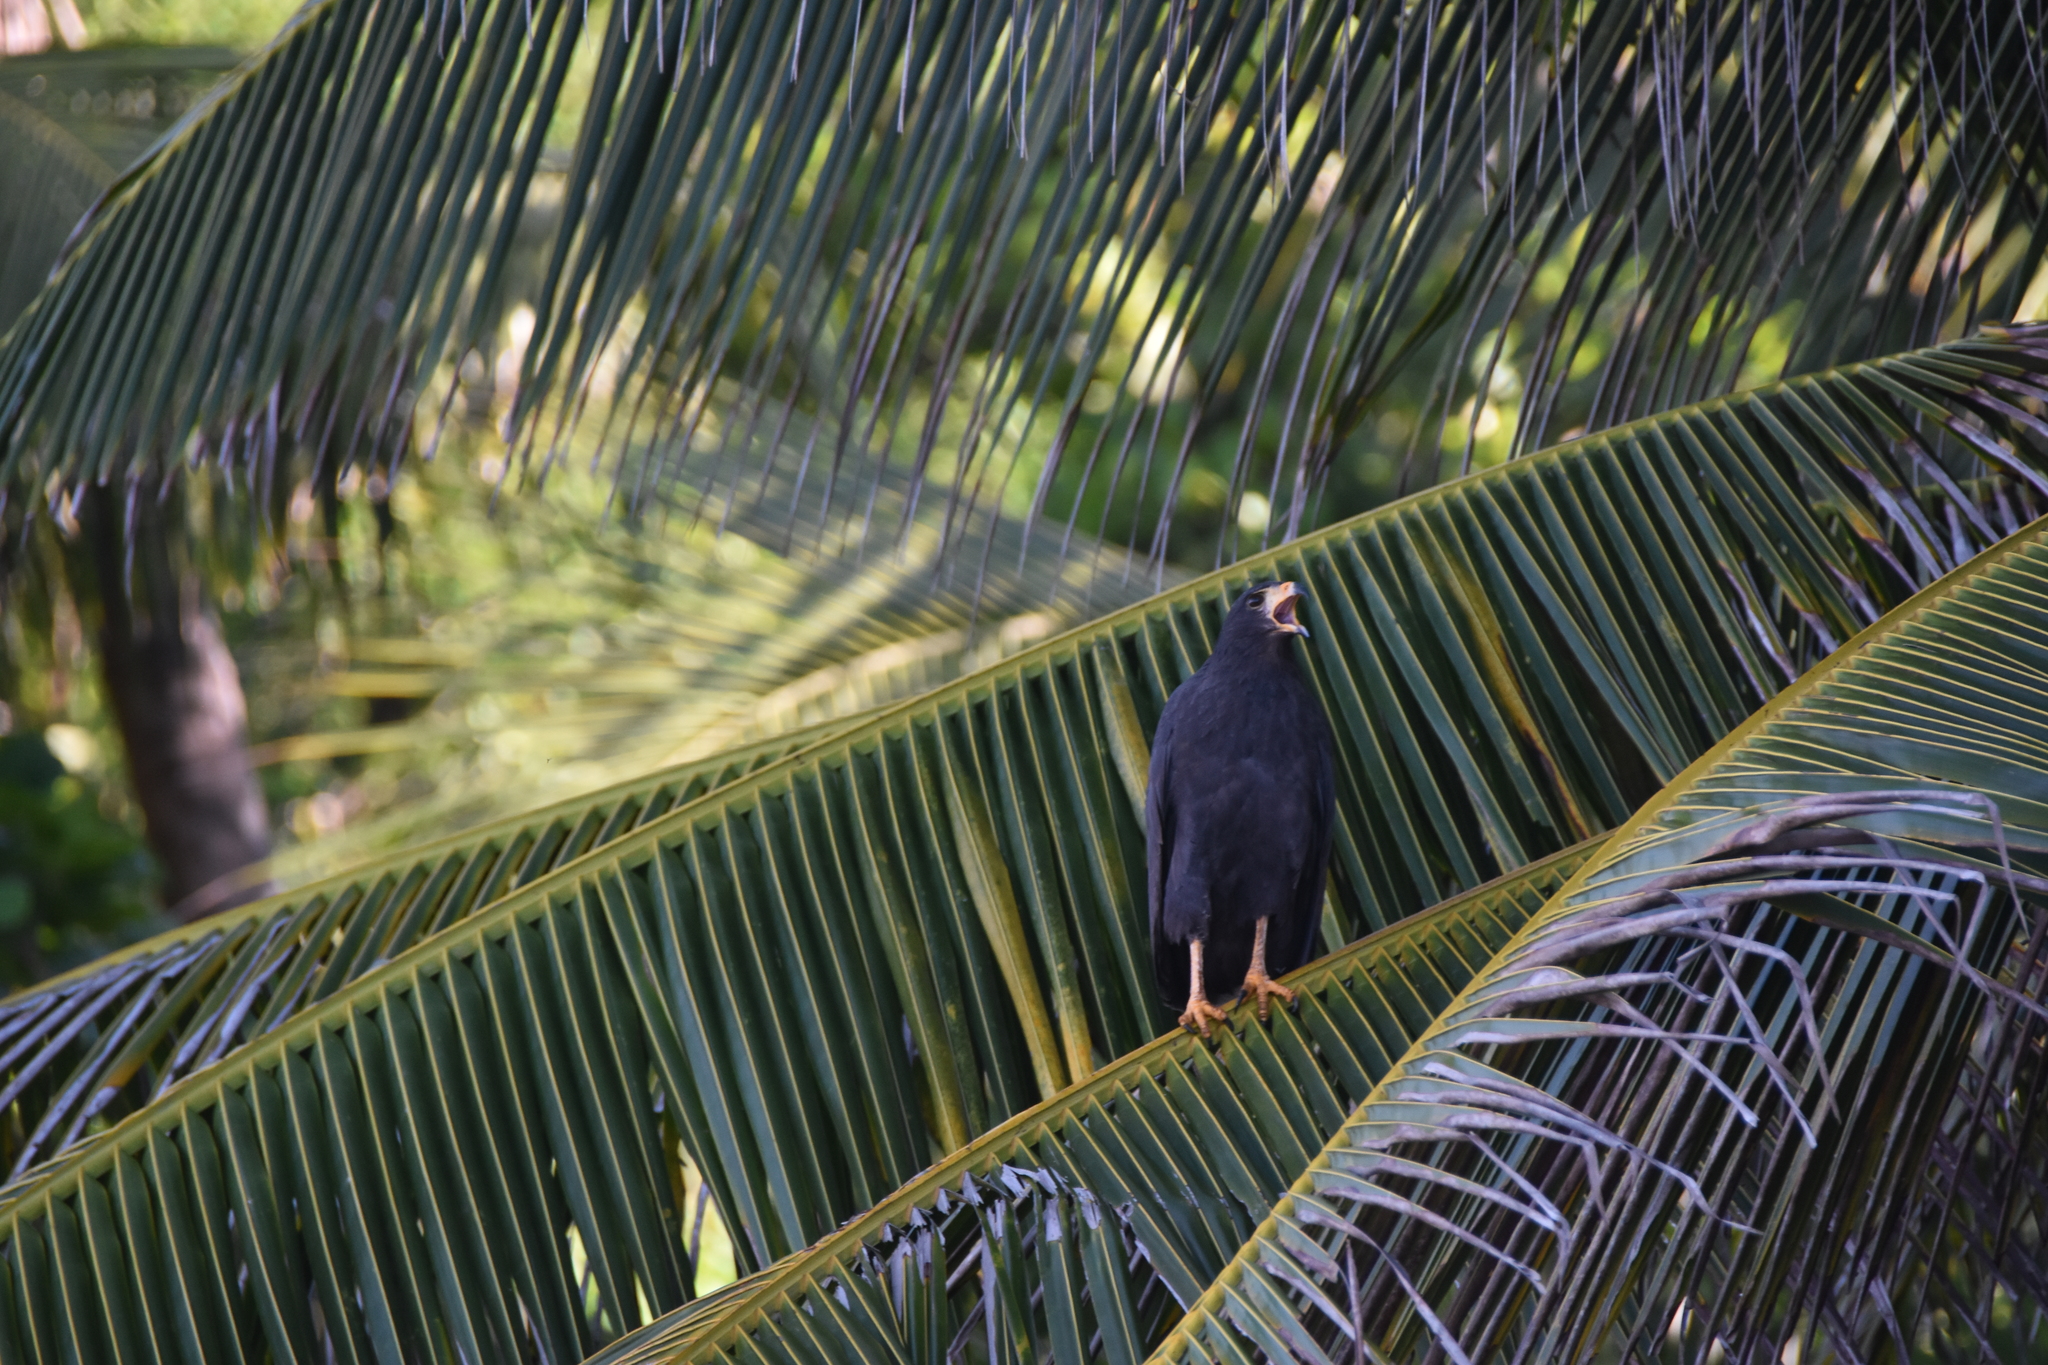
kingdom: Animalia
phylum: Chordata
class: Aves
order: Accipitriformes
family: Accipitridae
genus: Buteogallus
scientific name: Buteogallus anthracinus
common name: Common black hawk
